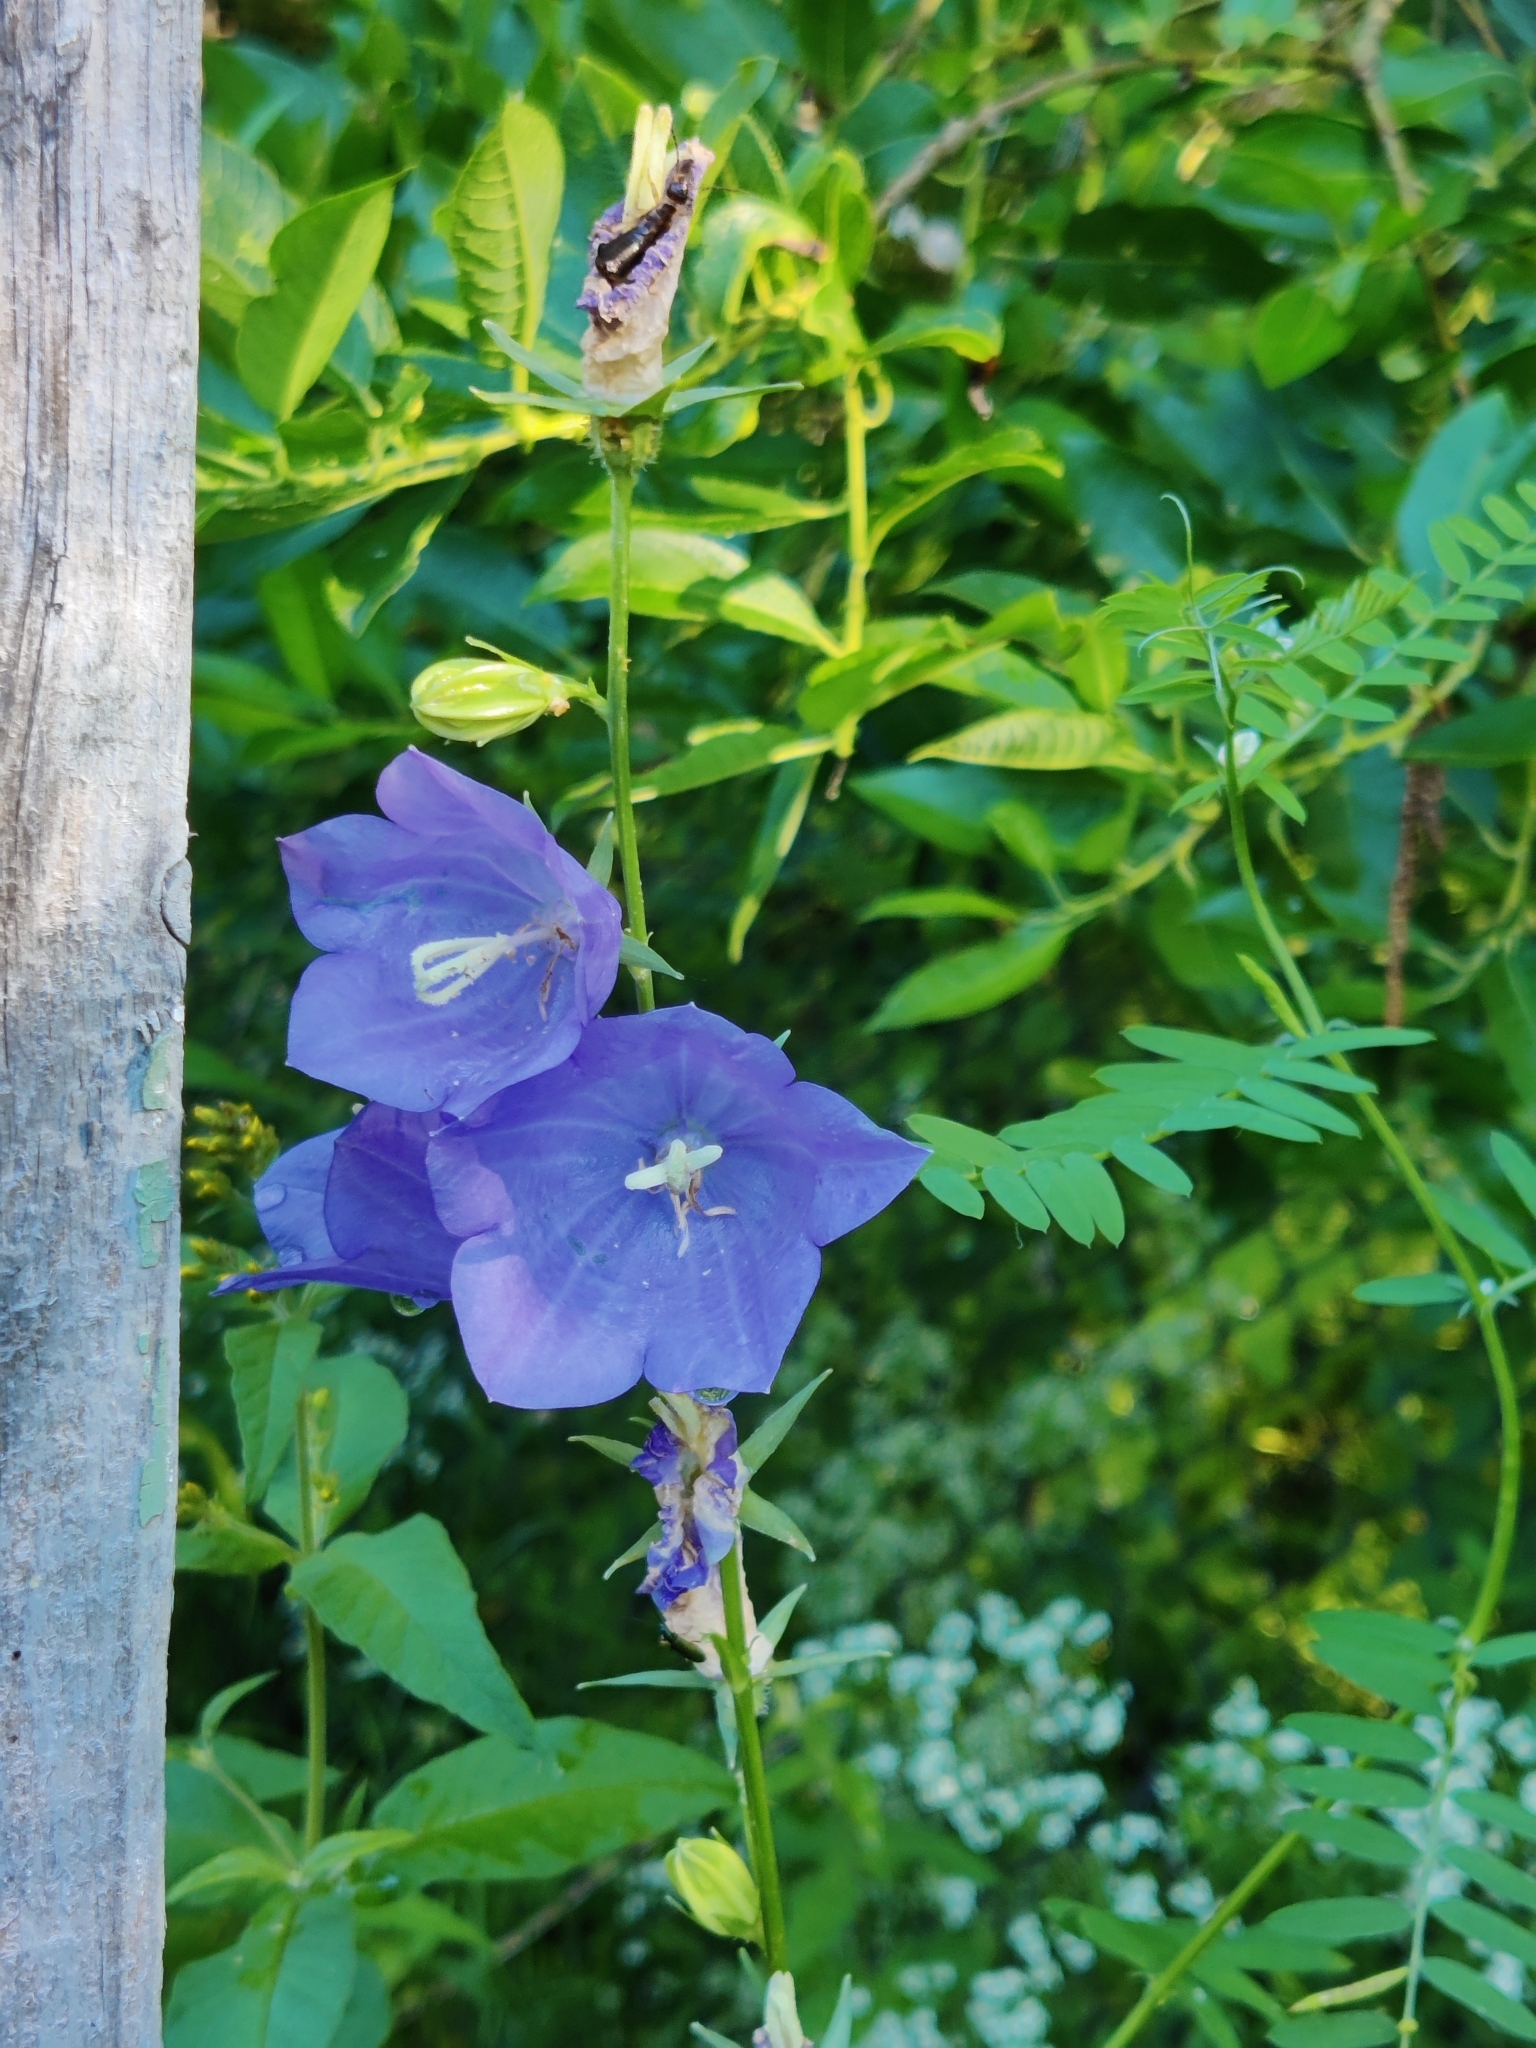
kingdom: Plantae
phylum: Tracheophyta
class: Magnoliopsida
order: Asterales
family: Campanulaceae
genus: Campanula
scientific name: Campanula persicifolia
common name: Peach-leaved bellflower
